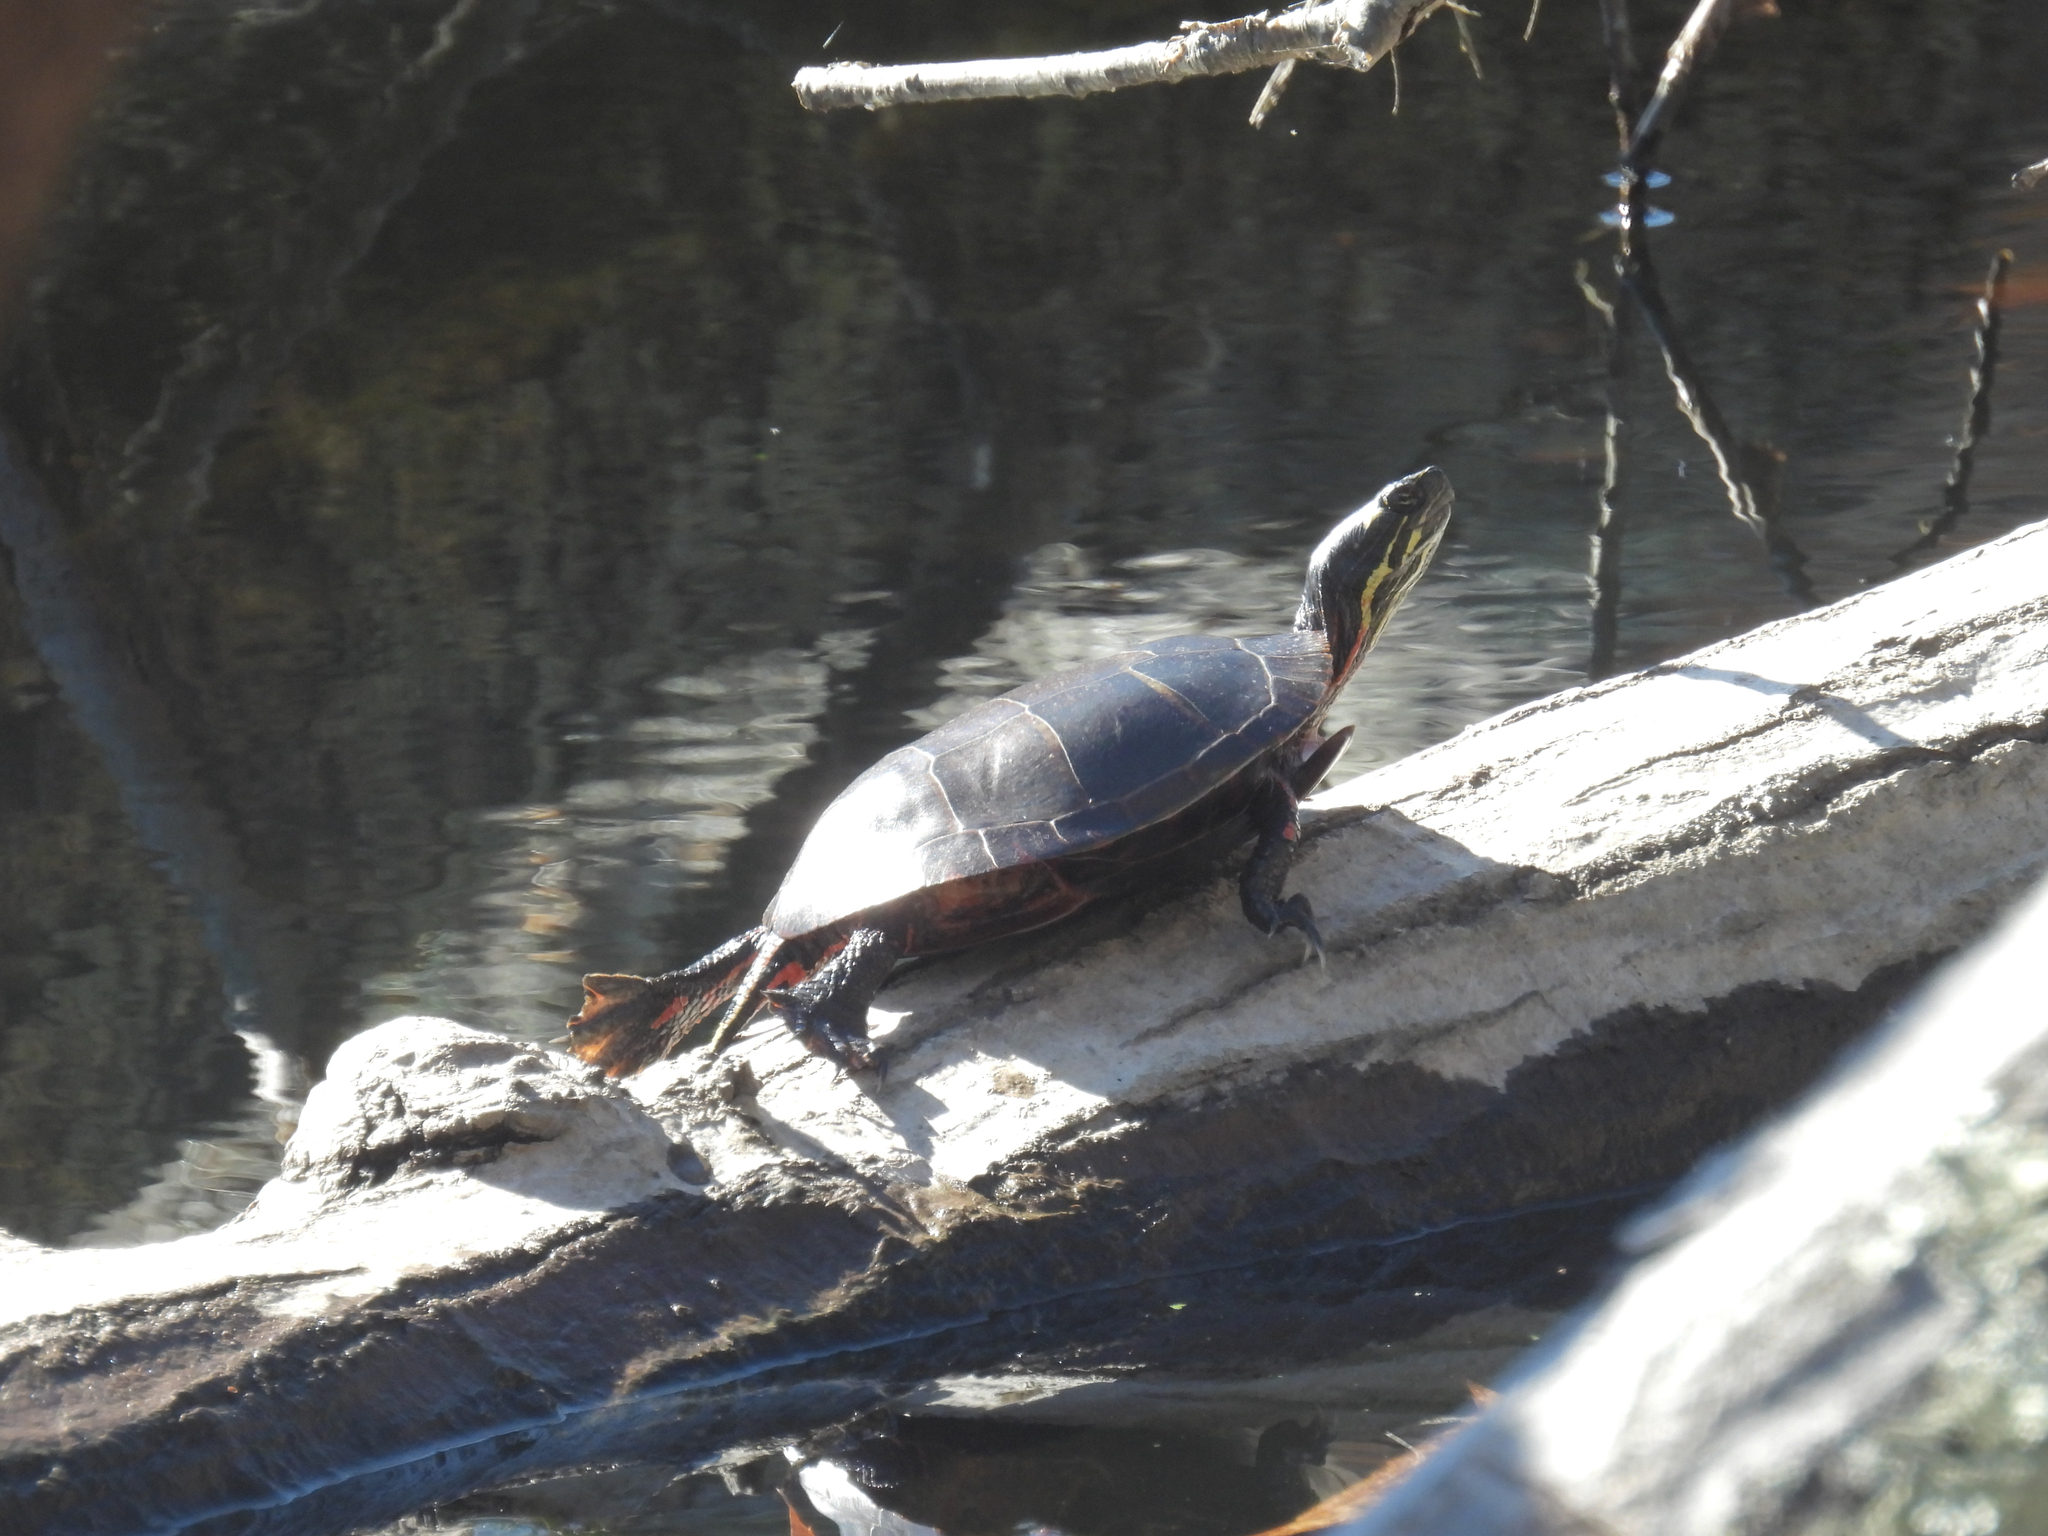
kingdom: Animalia
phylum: Chordata
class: Testudines
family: Emydidae
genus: Chrysemys
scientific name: Chrysemys picta
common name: Painted turtle
